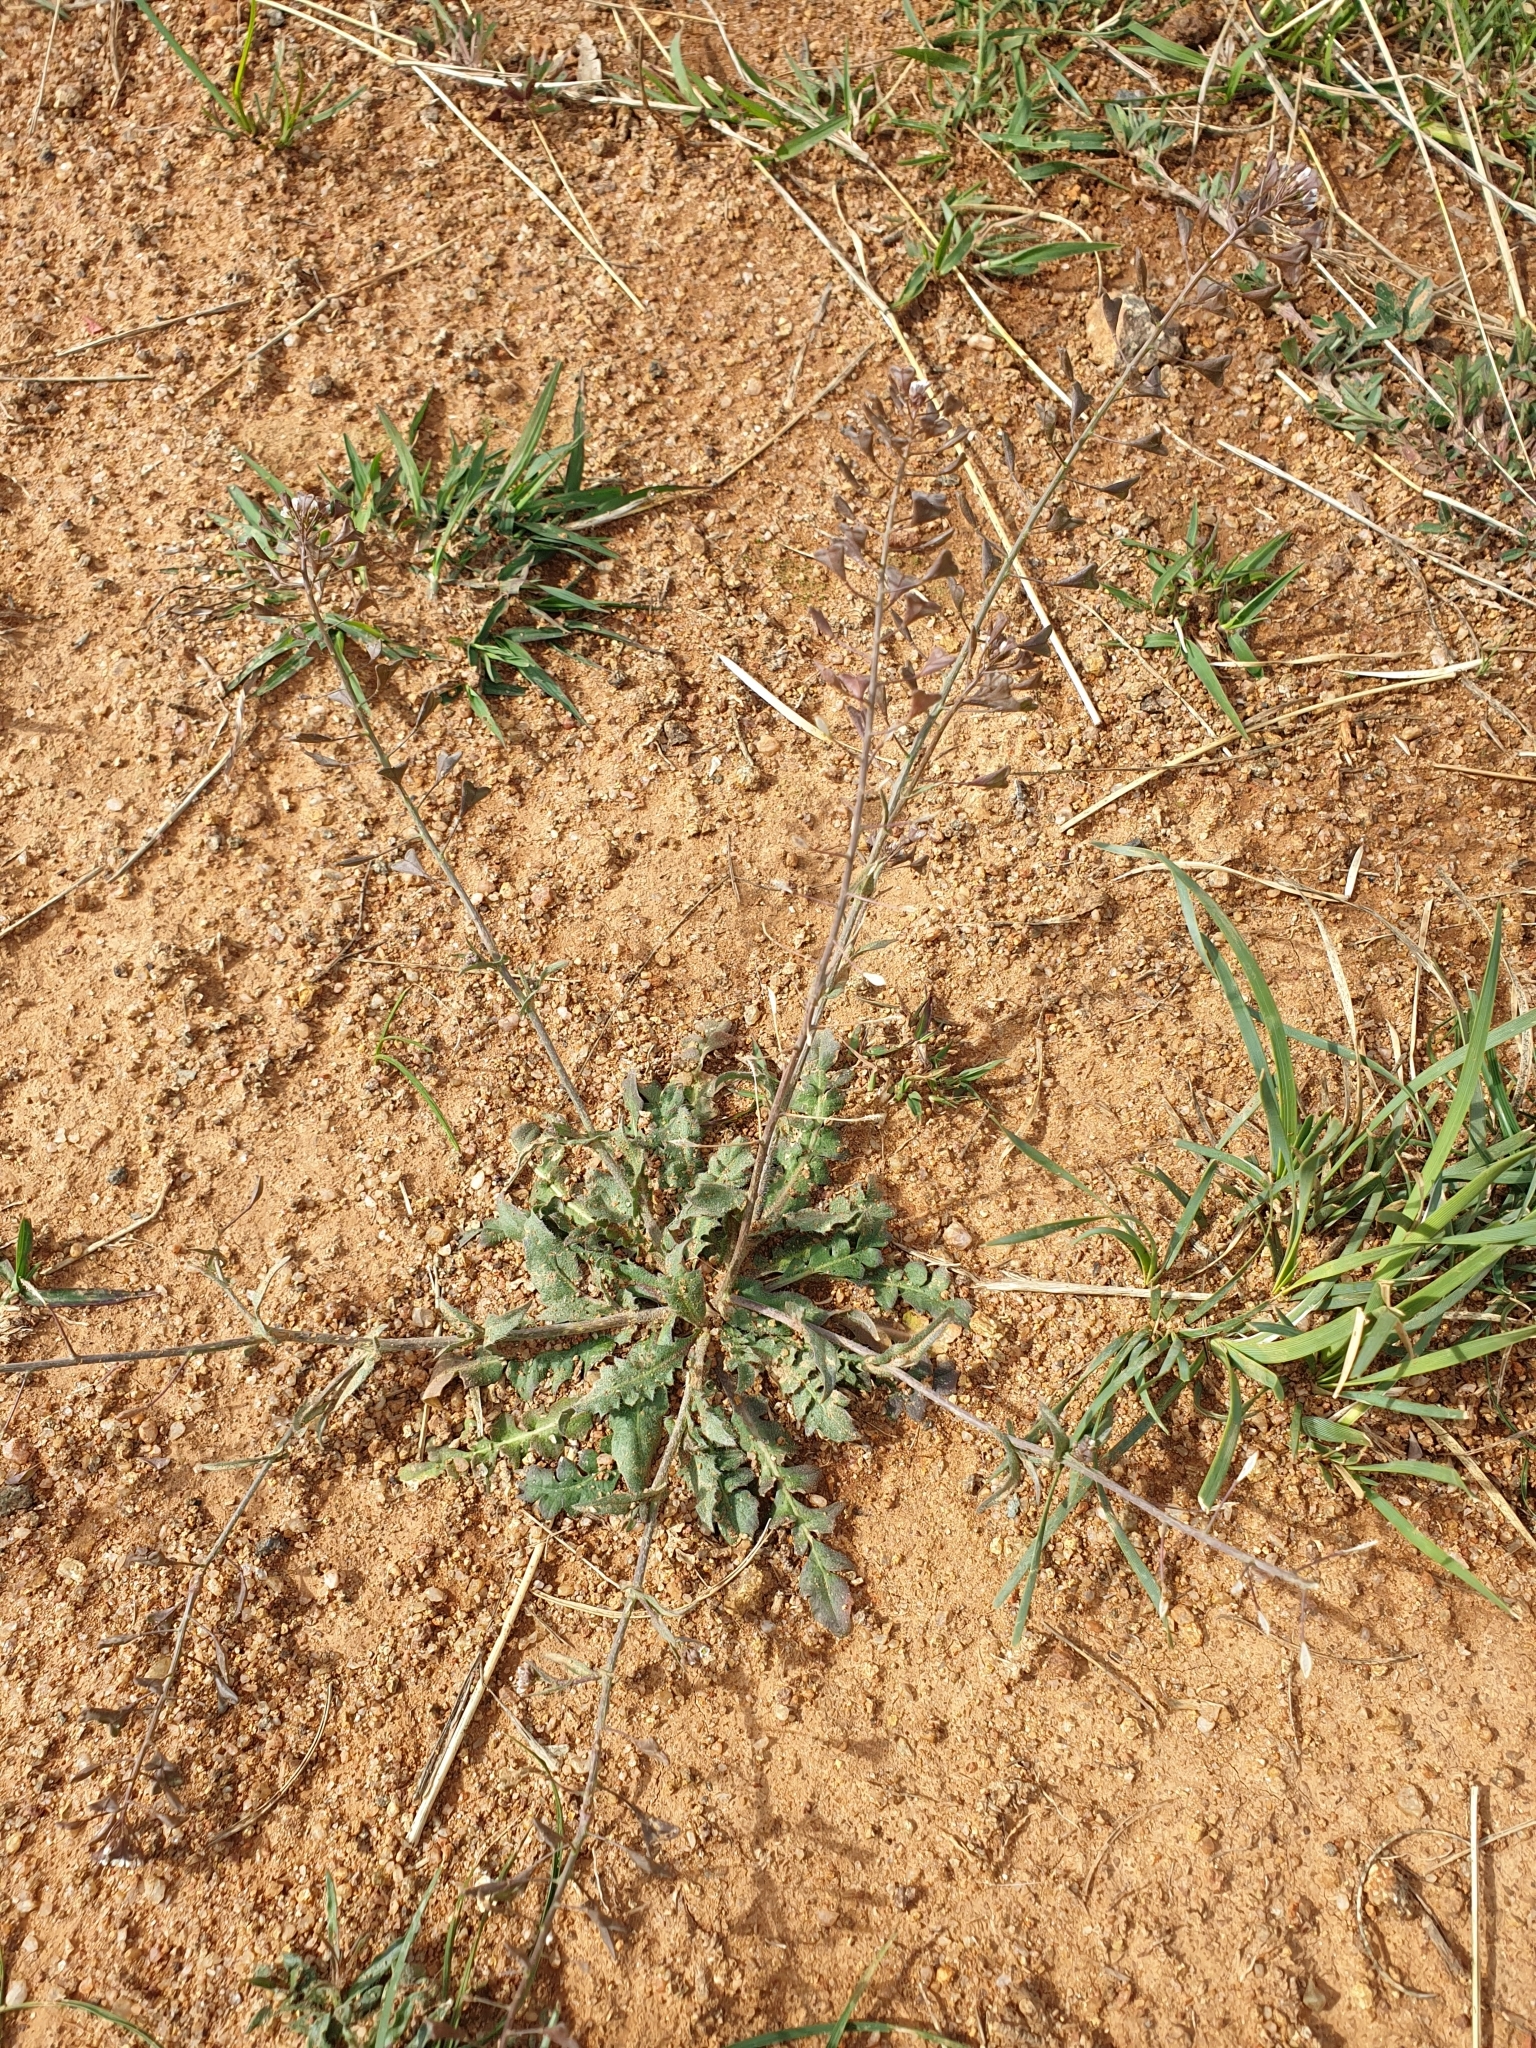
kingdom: Plantae
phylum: Tracheophyta
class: Magnoliopsida
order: Brassicales
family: Brassicaceae
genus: Capsella
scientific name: Capsella bursa-pastoris
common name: Shepherd's purse
